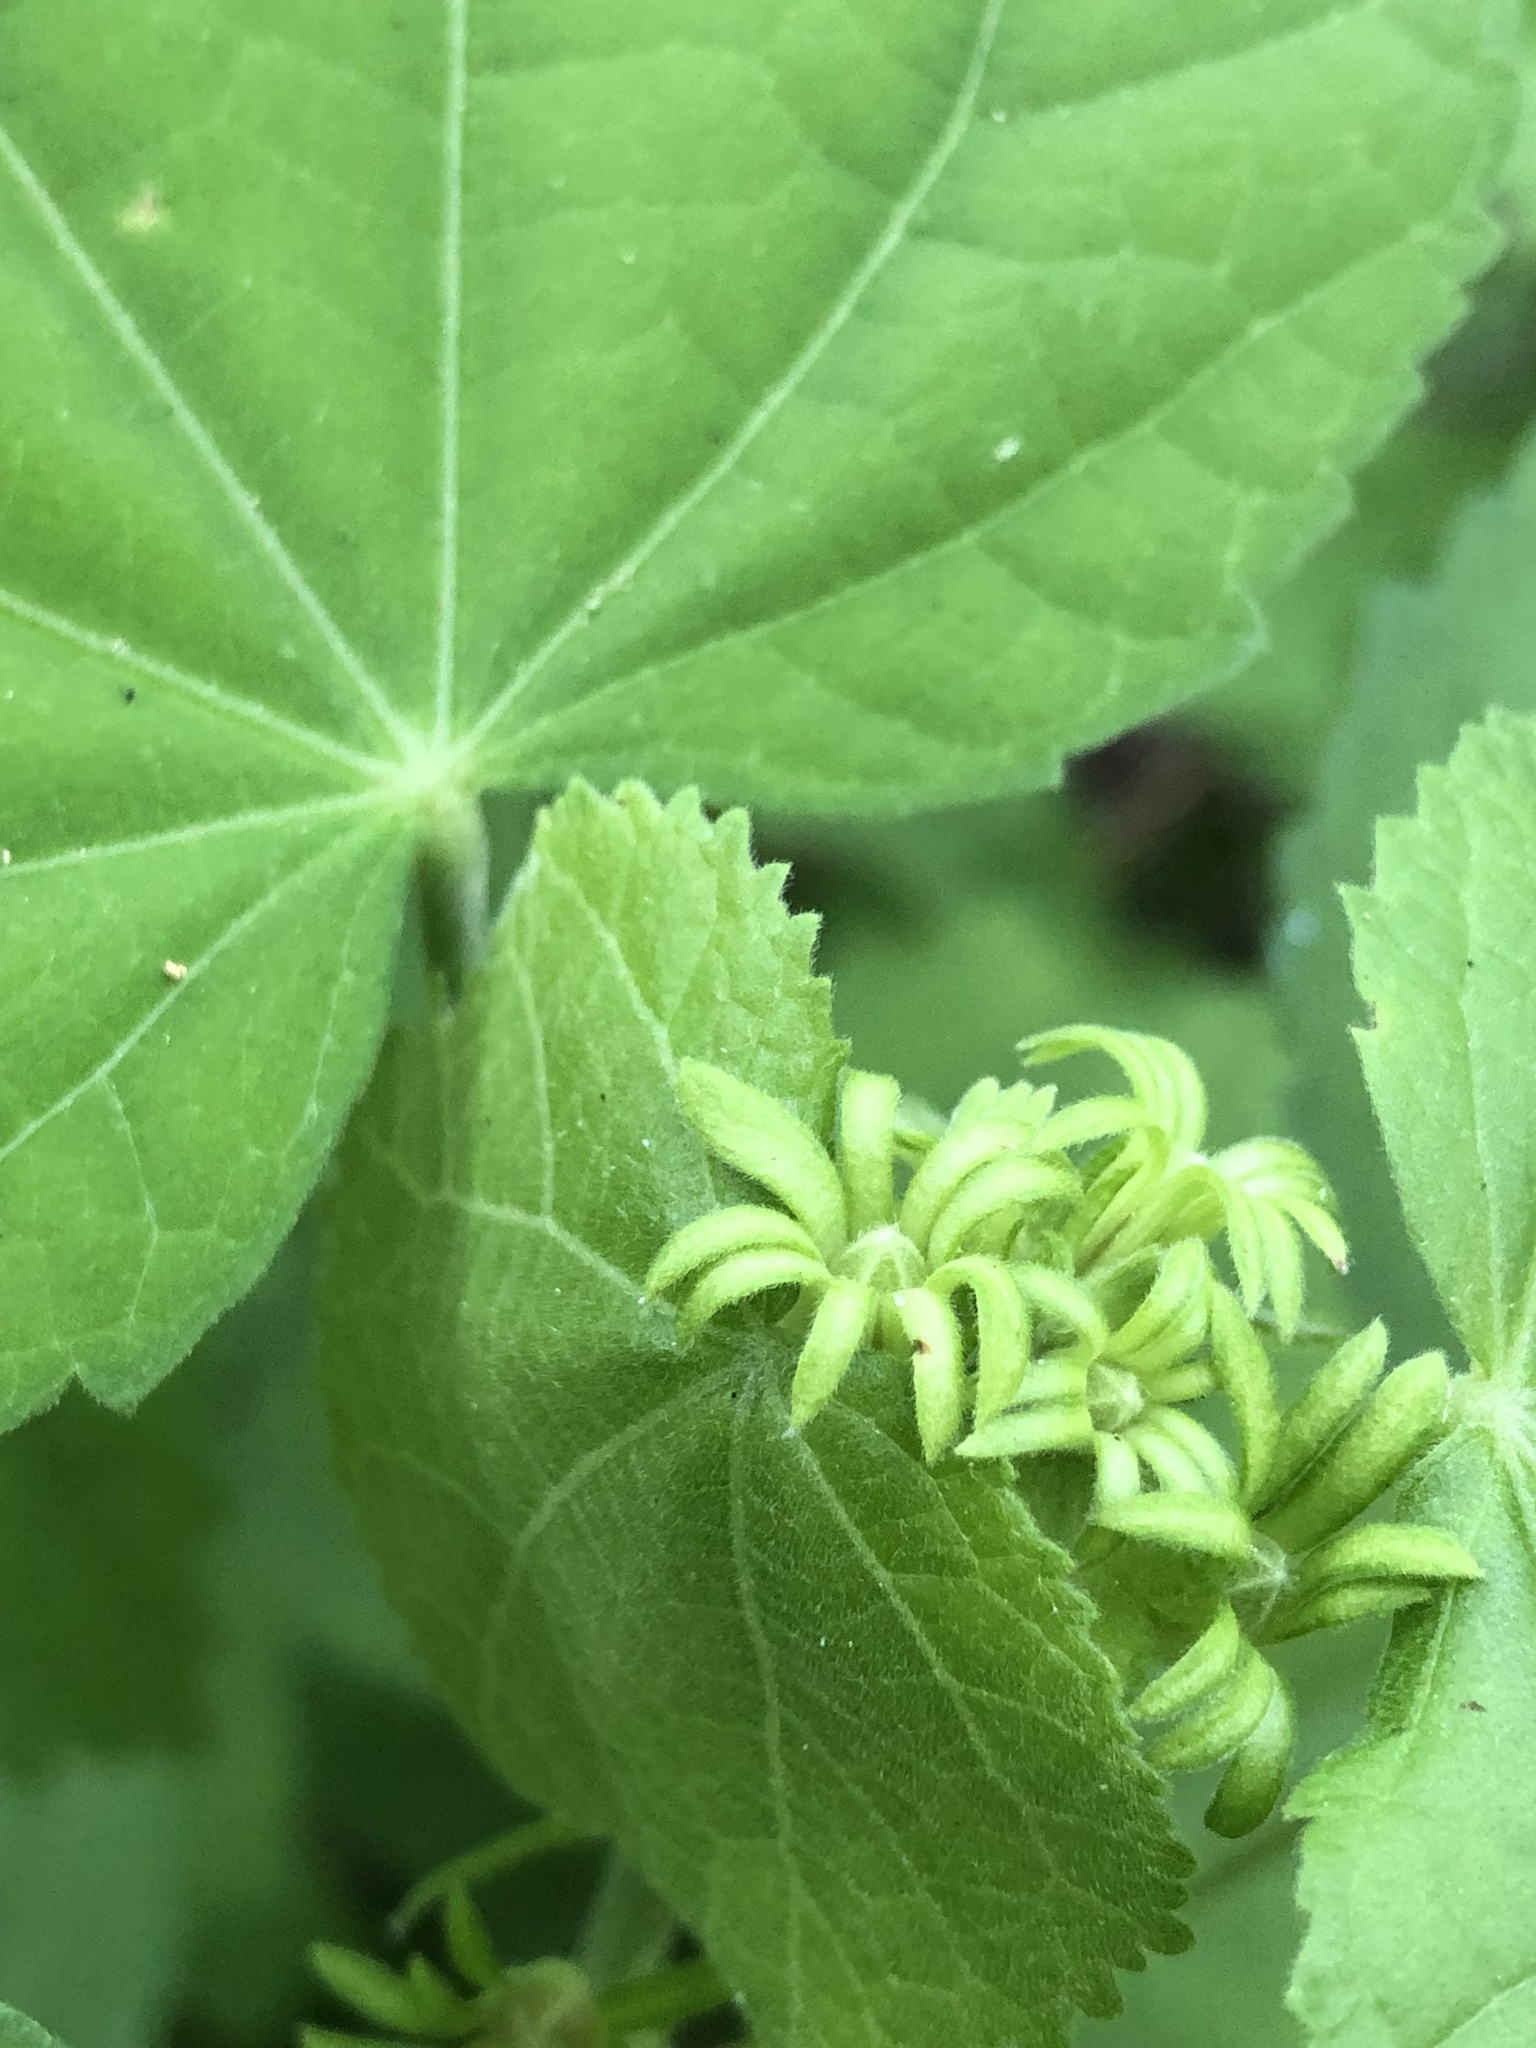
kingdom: Plantae
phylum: Tracheophyta
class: Magnoliopsida
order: Malvales
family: Malvaceae
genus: Malvaviscus
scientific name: Malvaviscus arboreus
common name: Wax mallow
